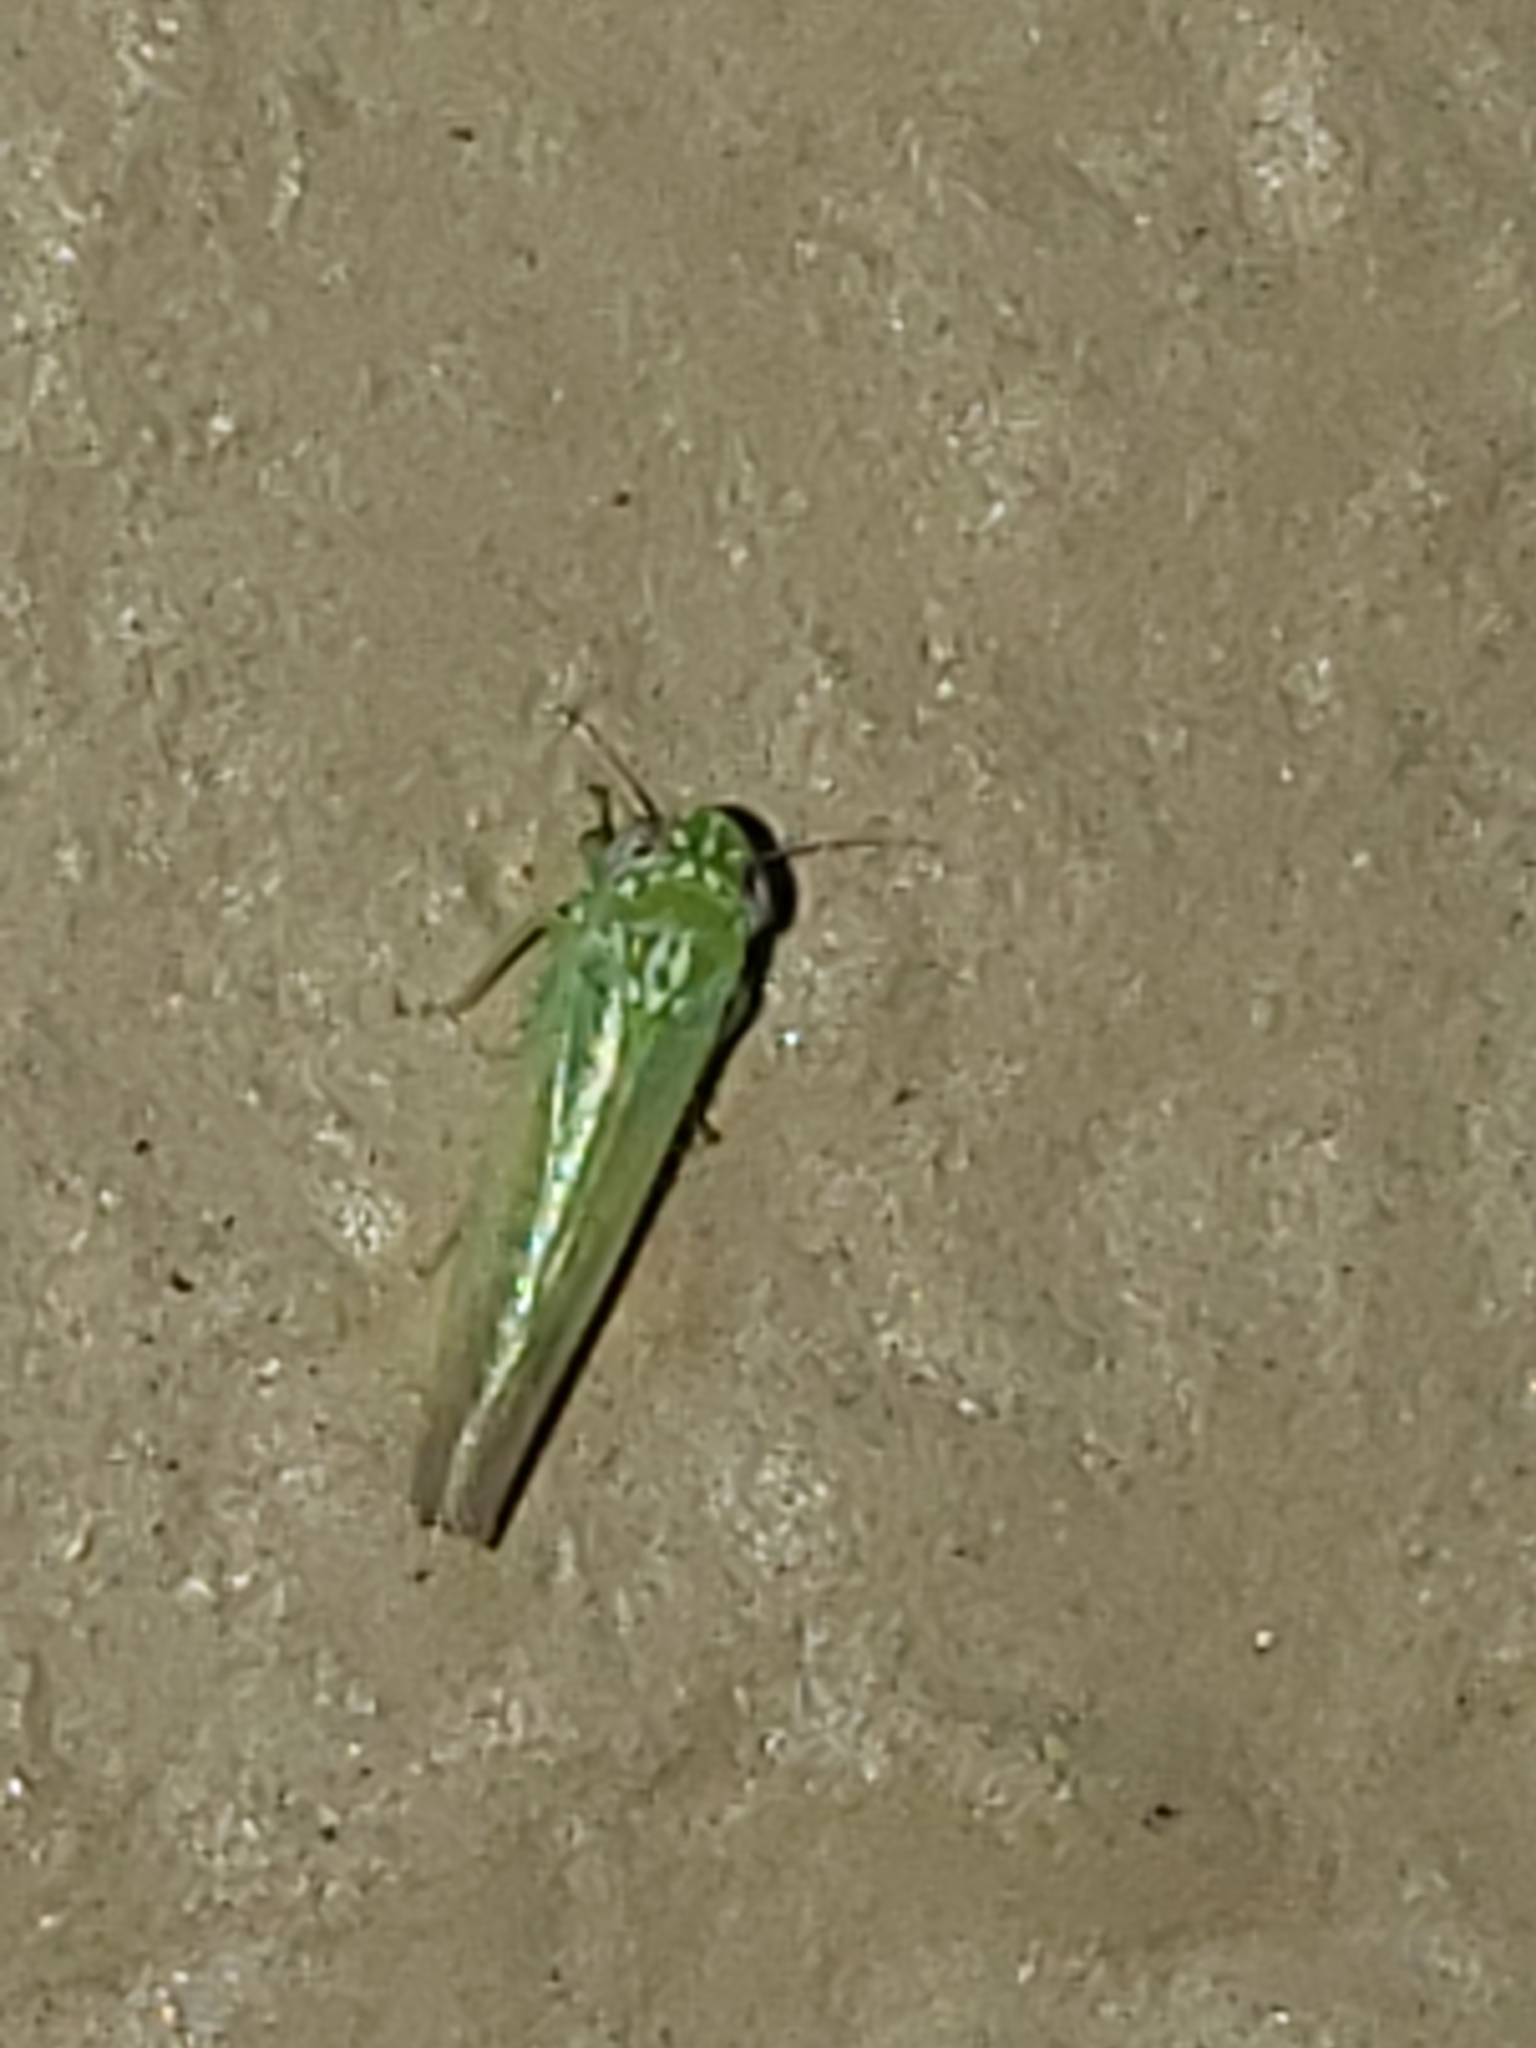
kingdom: Animalia
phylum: Arthropoda
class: Insecta
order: Hemiptera
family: Cicadellidae
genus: Empoasca
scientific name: Empoasca fabae
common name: Potato leafhopper
